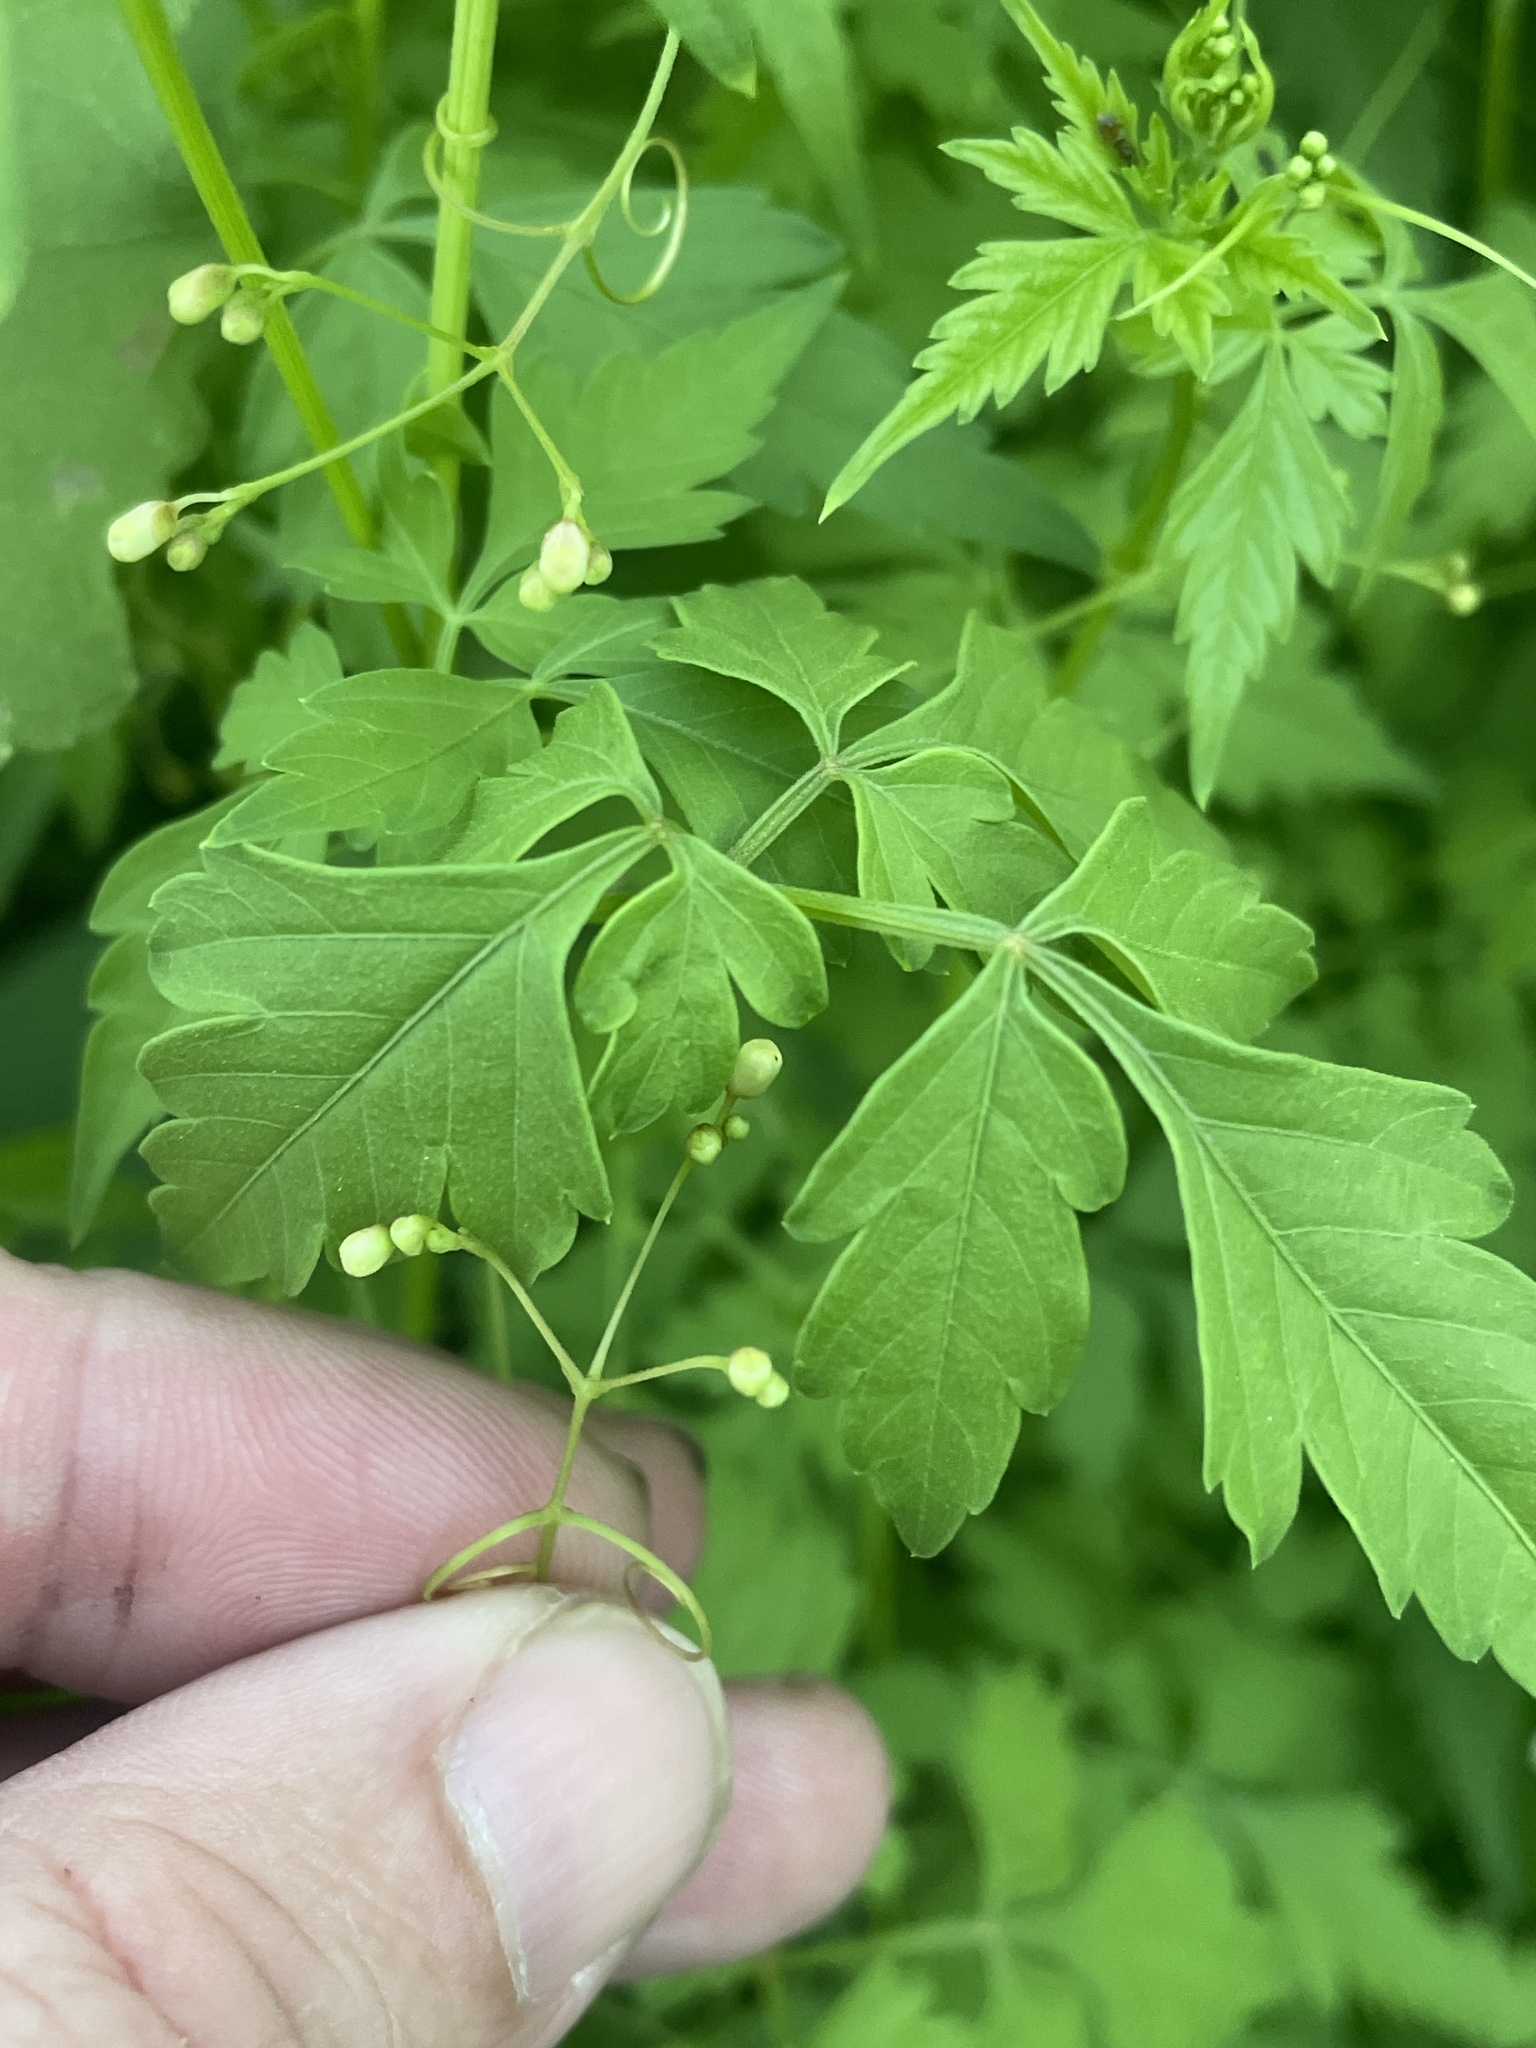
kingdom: Plantae
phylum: Tracheophyta
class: Magnoliopsida
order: Sapindales
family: Sapindaceae
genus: Cardiospermum
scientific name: Cardiospermum halicacabum
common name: Balloon vine
